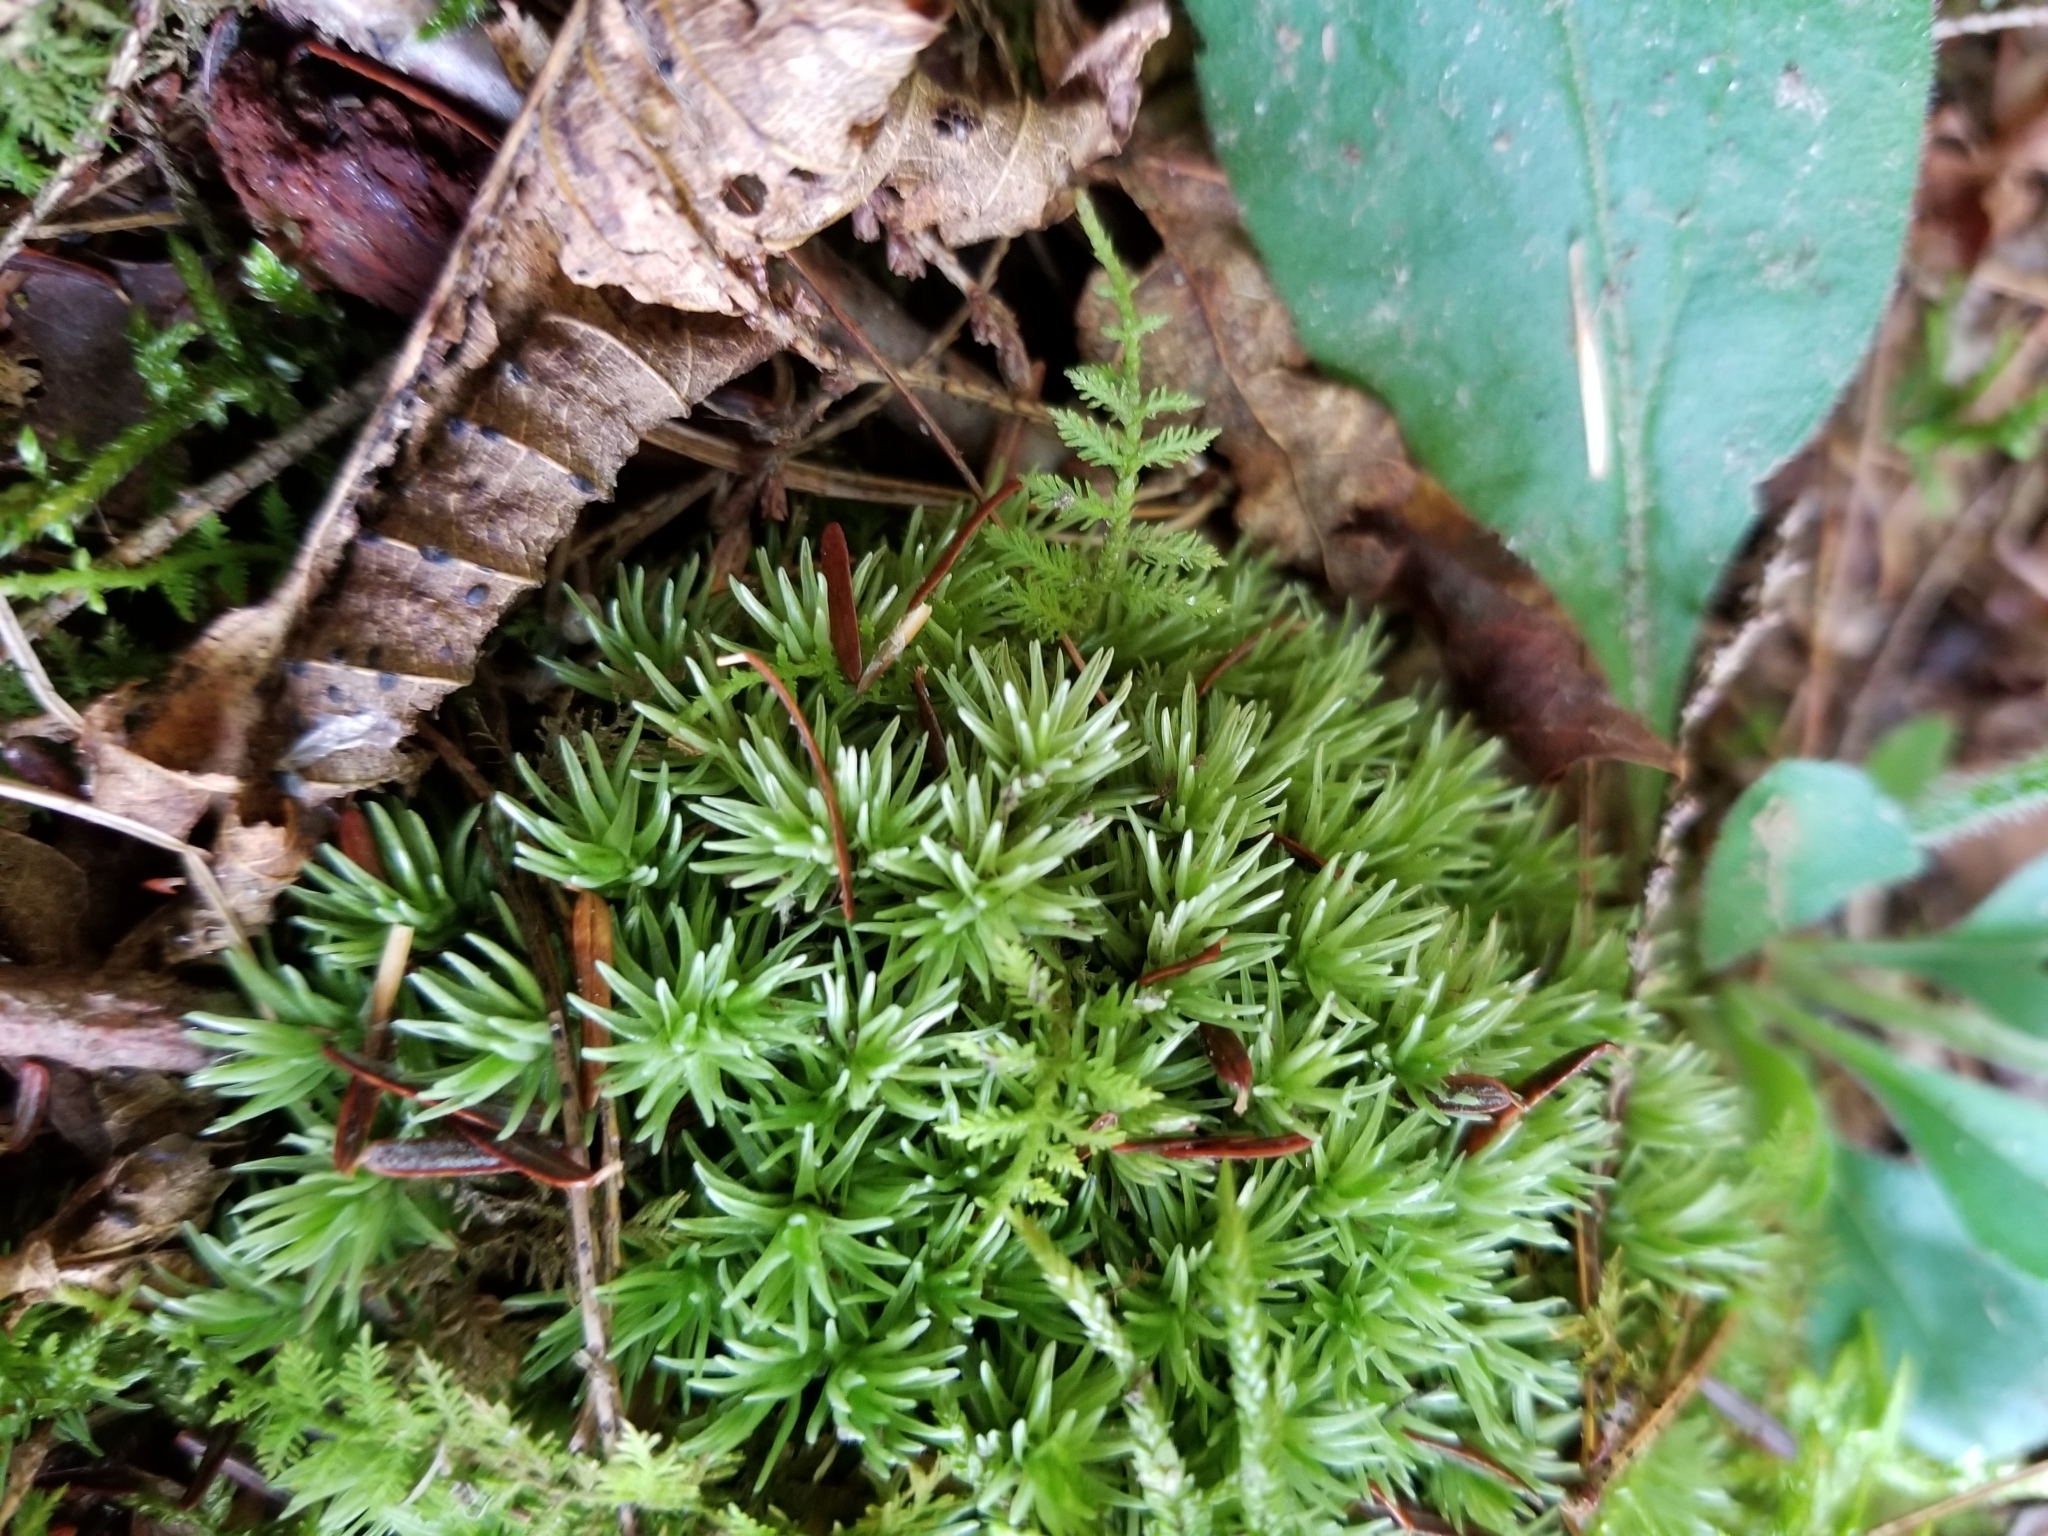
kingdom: Plantae
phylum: Bryophyta
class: Bryopsida
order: Dicranales
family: Leucobryaceae
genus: Leucobryum
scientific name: Leucobryum glaucum
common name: Large white-moss
